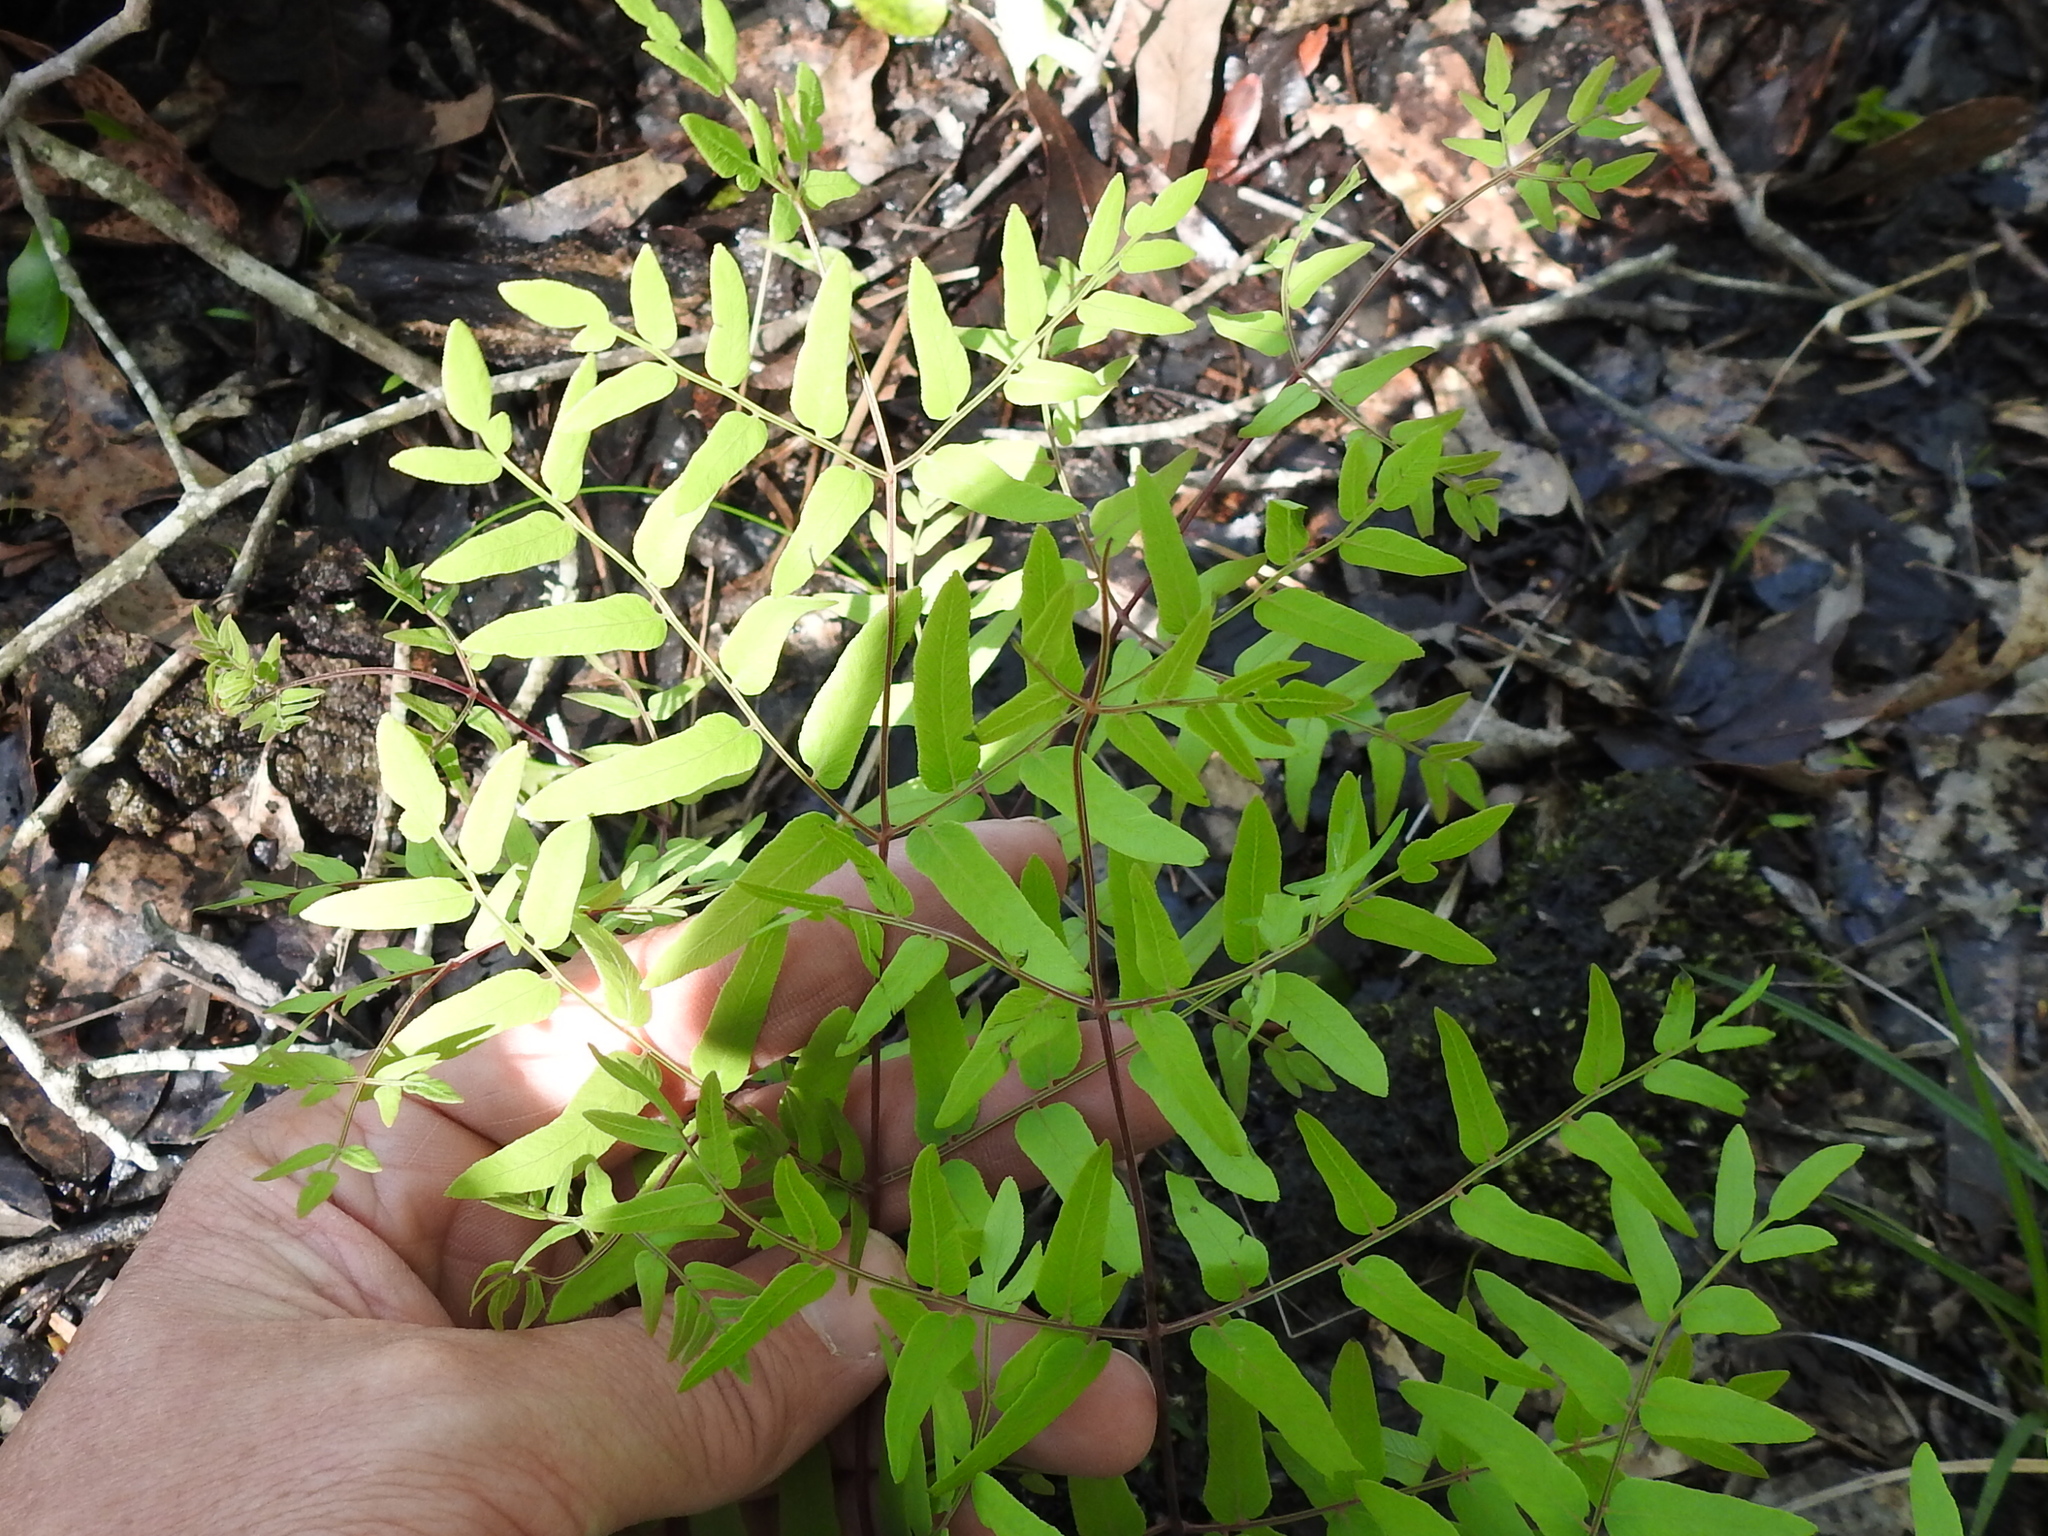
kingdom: Plantae
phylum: Tracheophyta
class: Polypodiopsida
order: Osmundales
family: Osmundaceae
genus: Osmunda
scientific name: Osmunda spectabilis
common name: American royal fern
